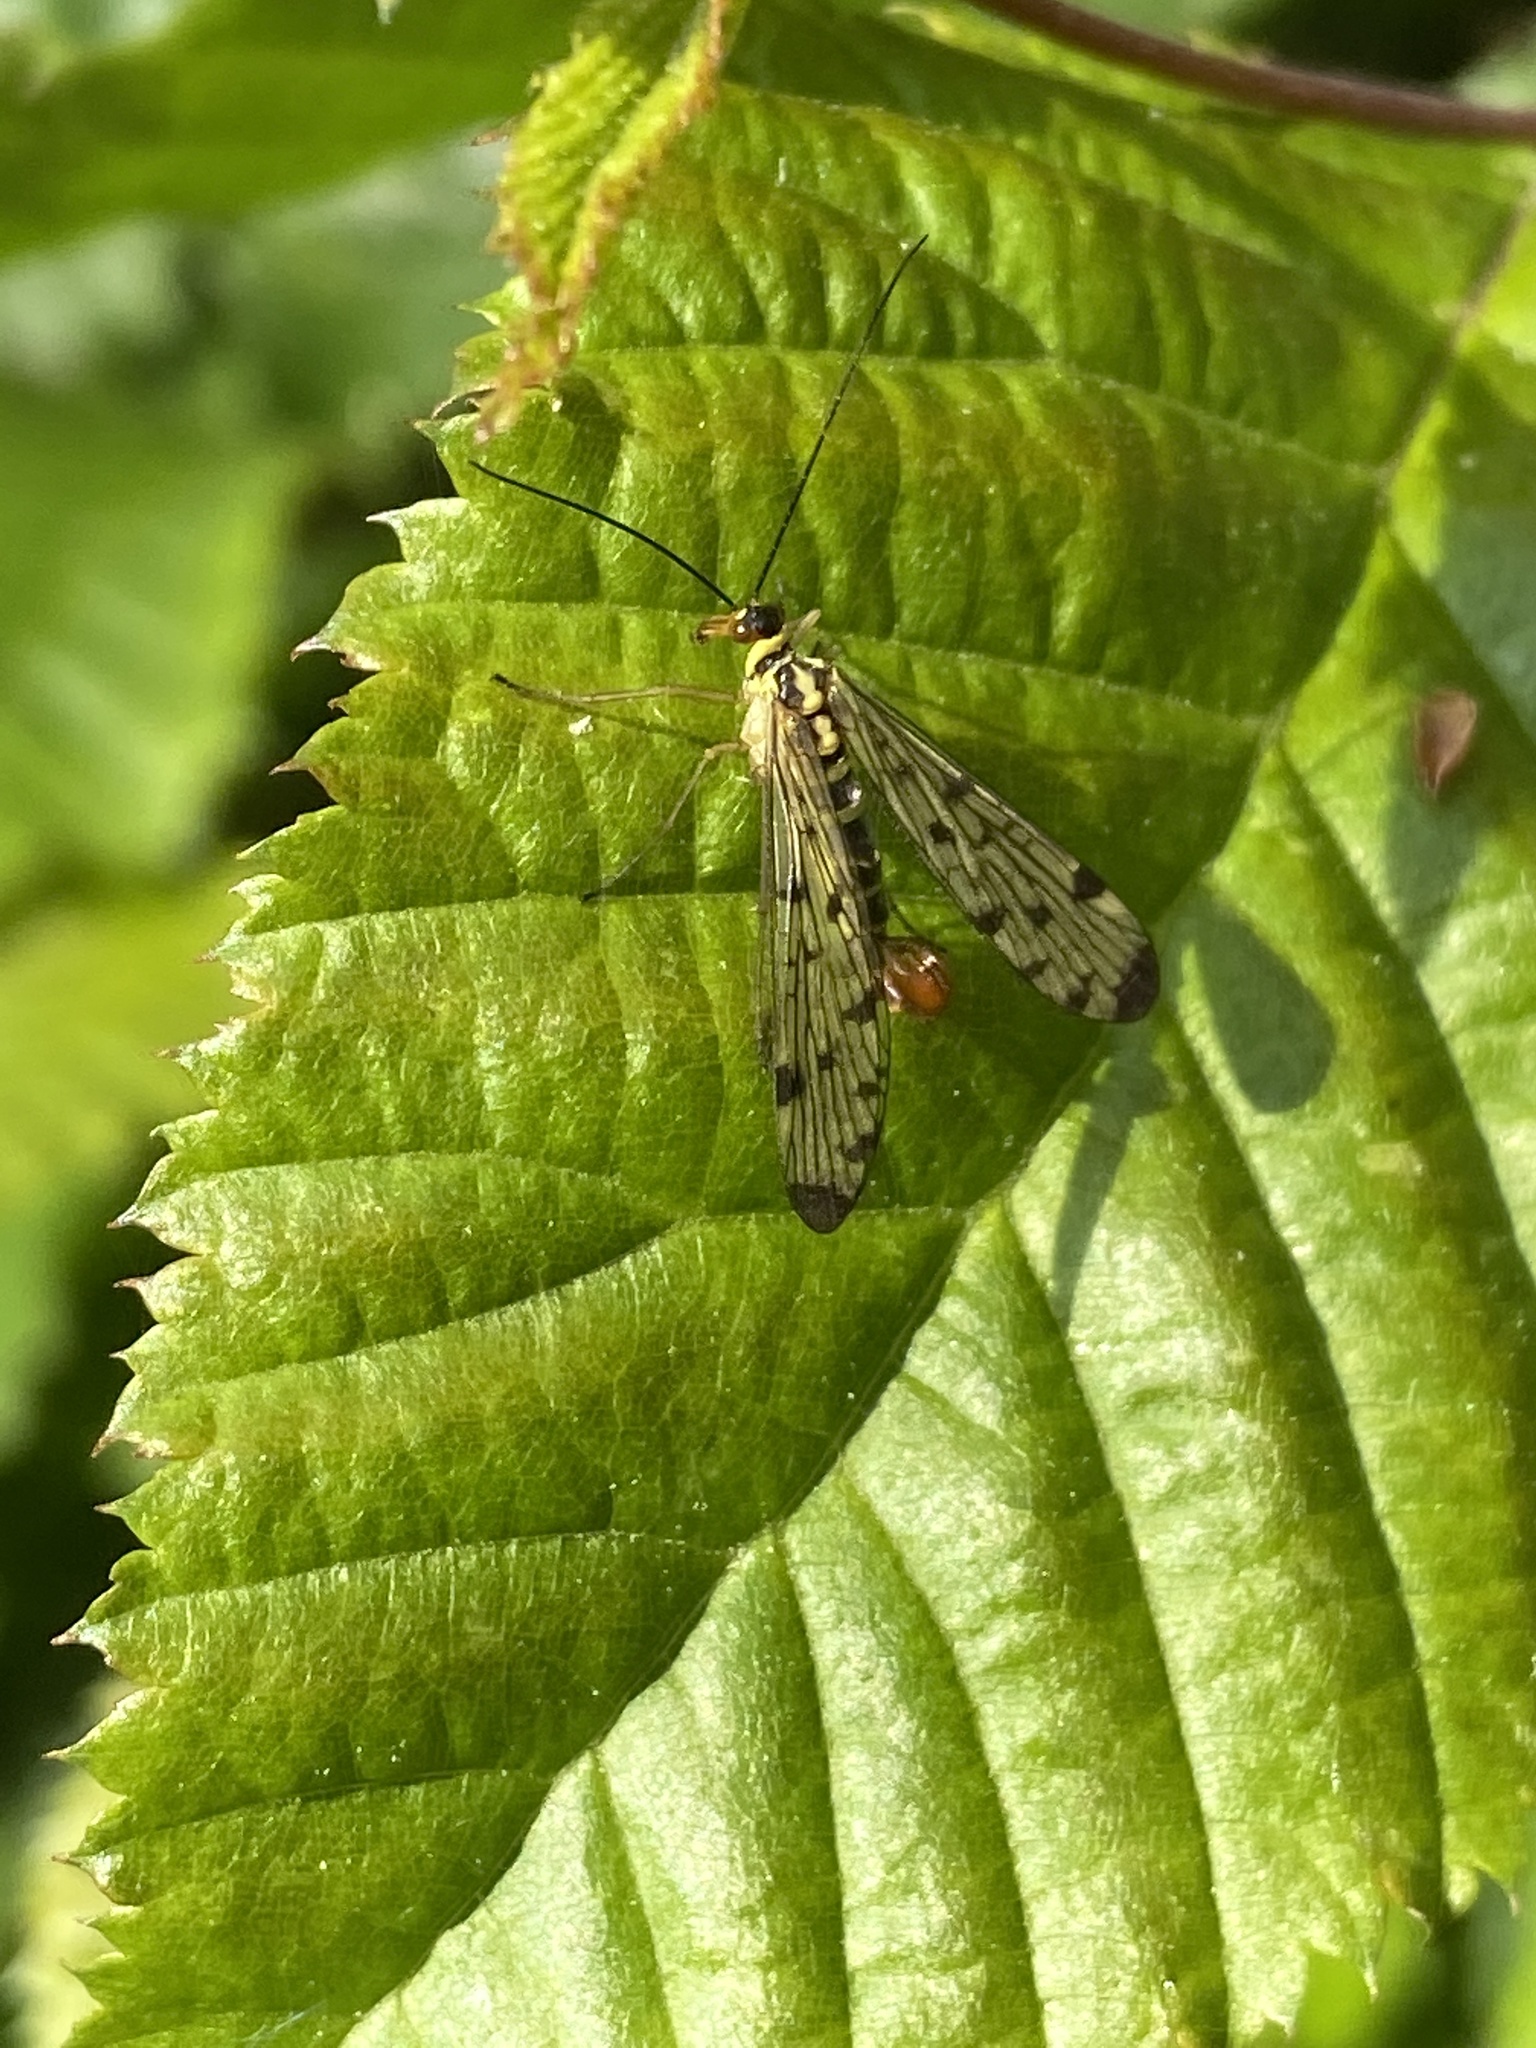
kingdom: Animalia
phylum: Arthropoda
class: Insecta
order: Mecoptera
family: Panorpidae
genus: Panorpa
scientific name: Panorpa germanica
